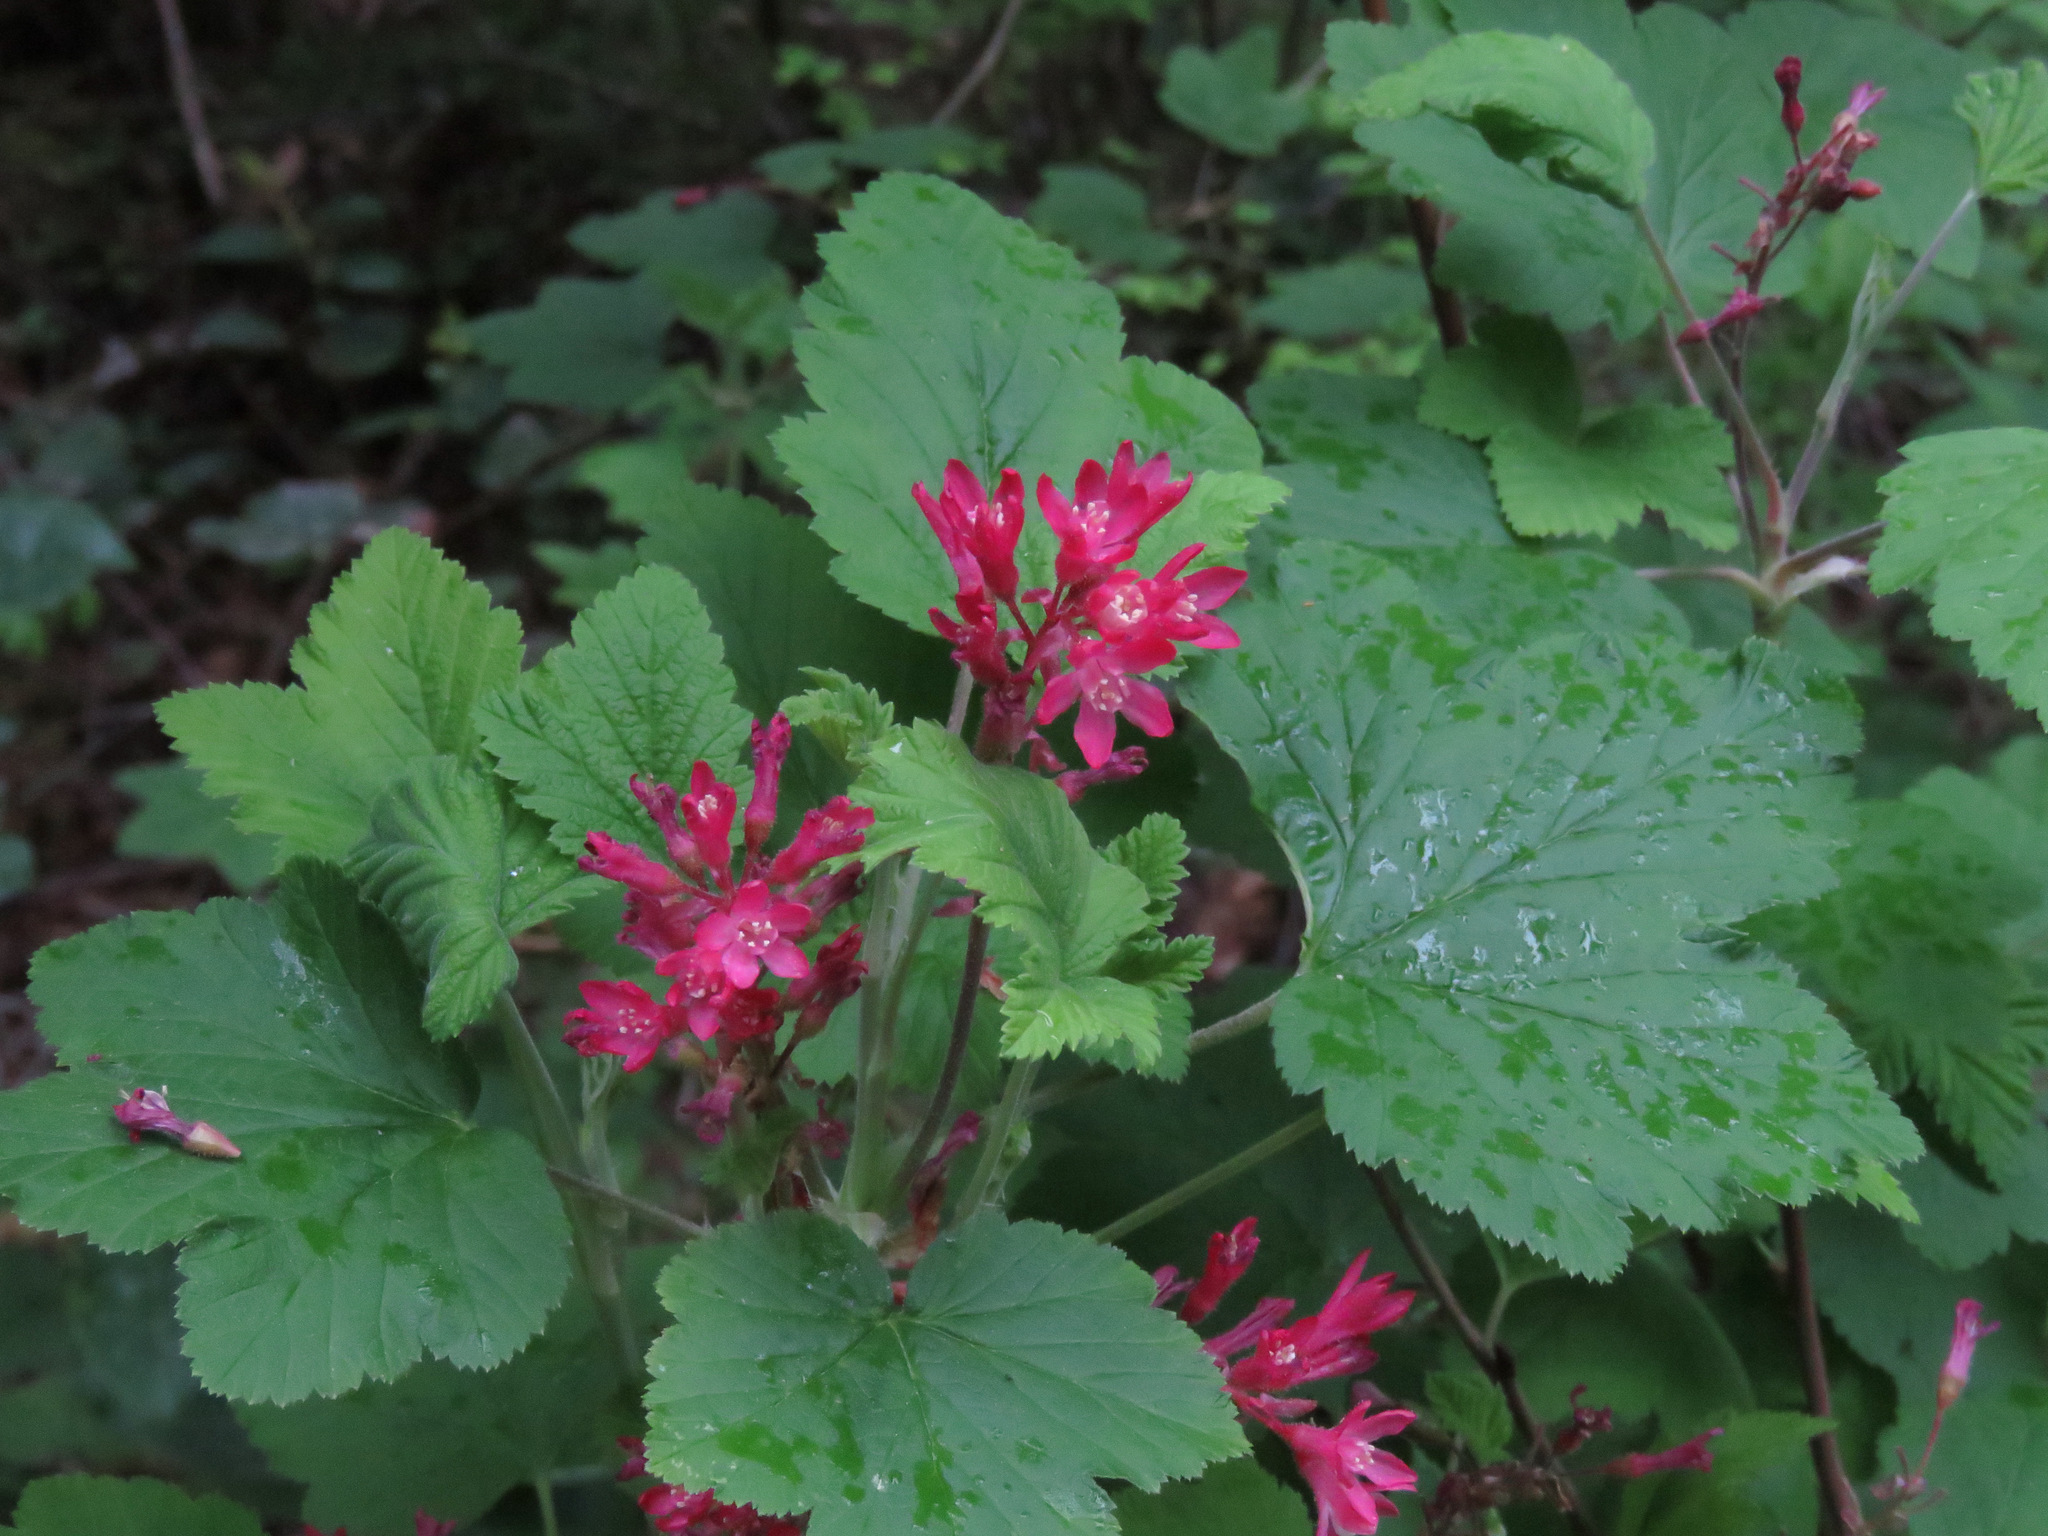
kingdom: Plantae
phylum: Tracheophyta
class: Magnoliopsida
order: Saxifragales
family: Grossulariaceae
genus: Ribes
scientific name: Ribes sanguineum
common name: Flowering currant
